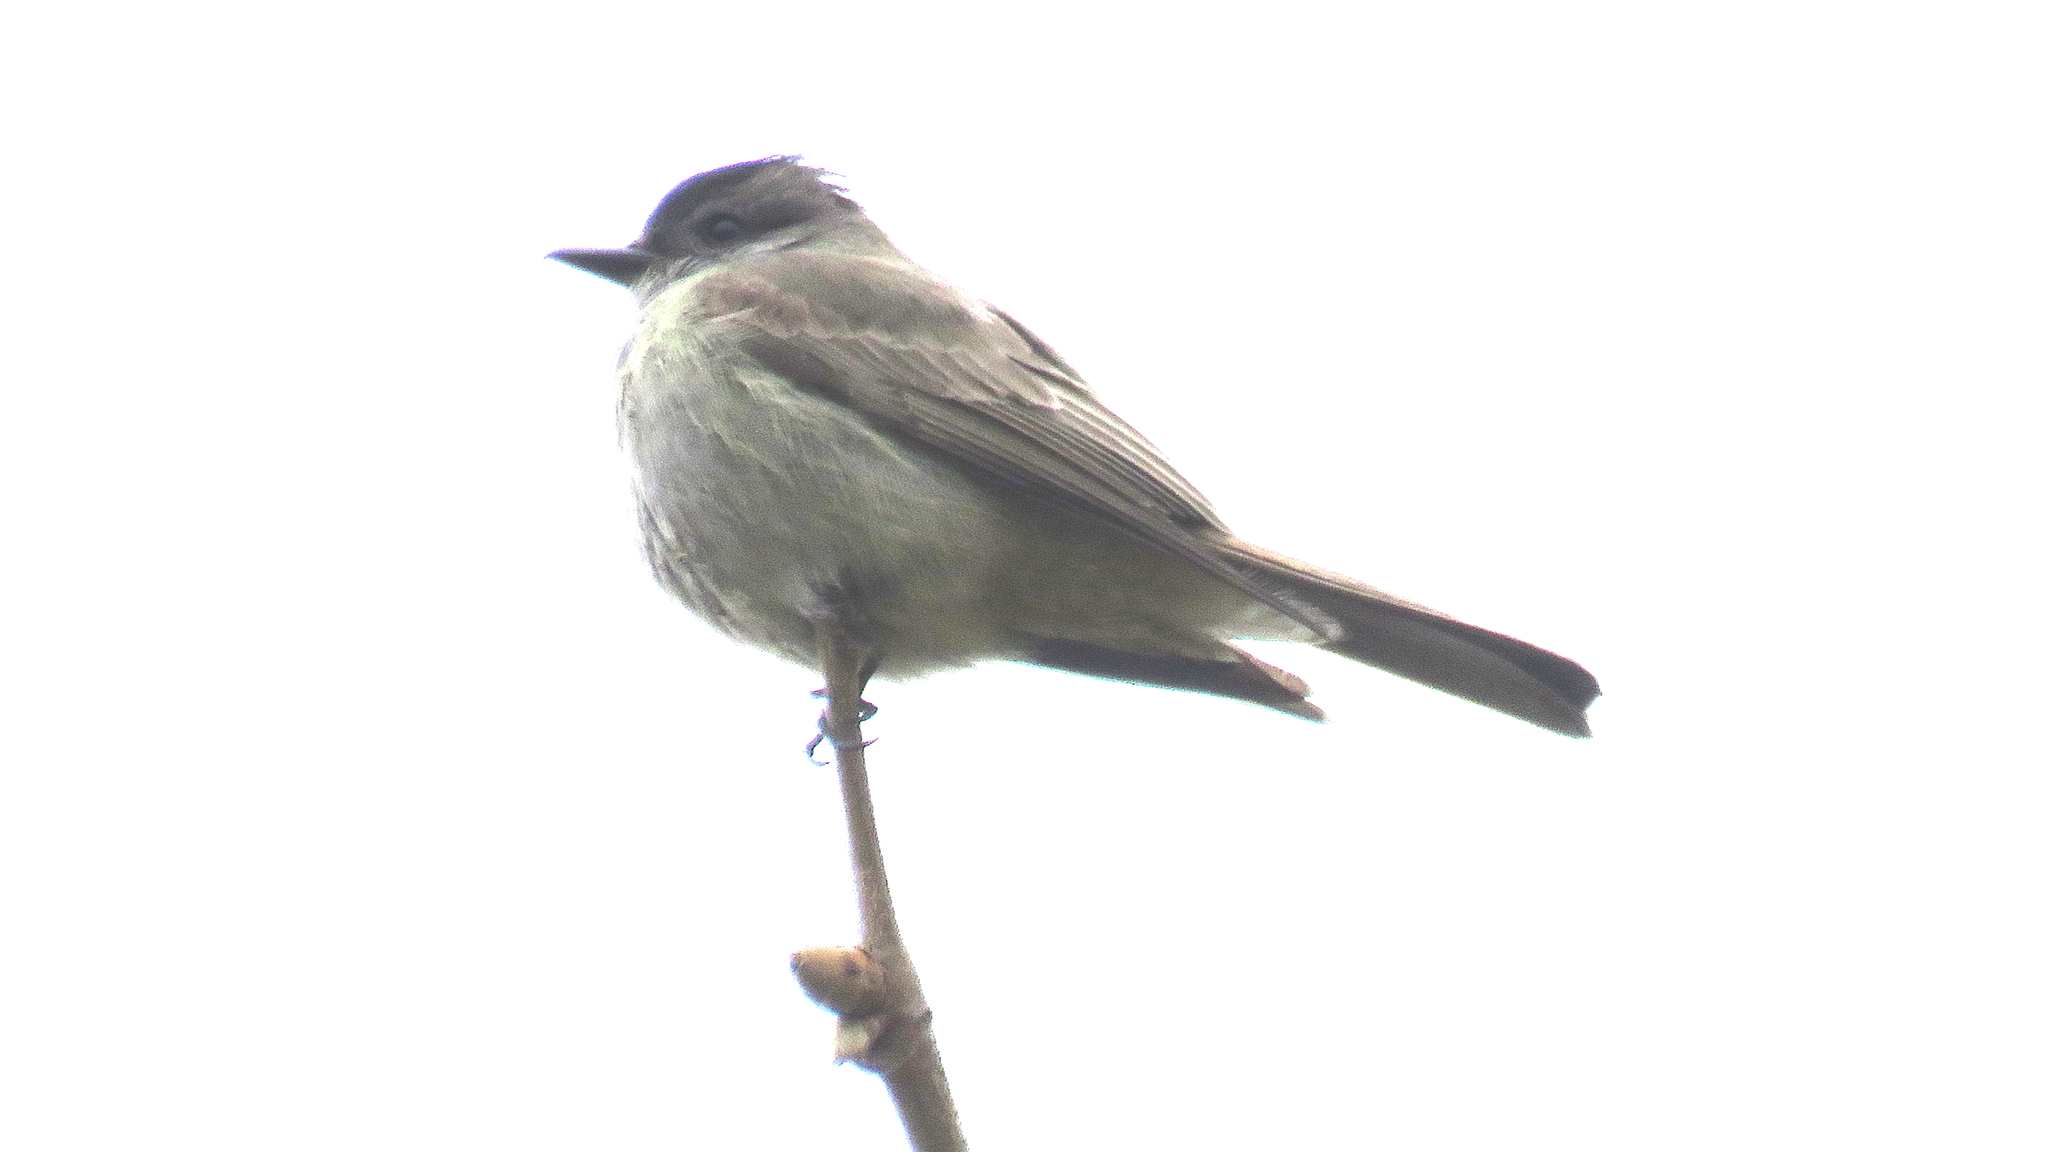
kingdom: Animalia
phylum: Chordata
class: Aves
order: Passeriformes
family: Tyrannidae
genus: Empidonomus
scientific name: Empidonomus aurantioatrocristatus
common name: Crowned slaty flycatcher
